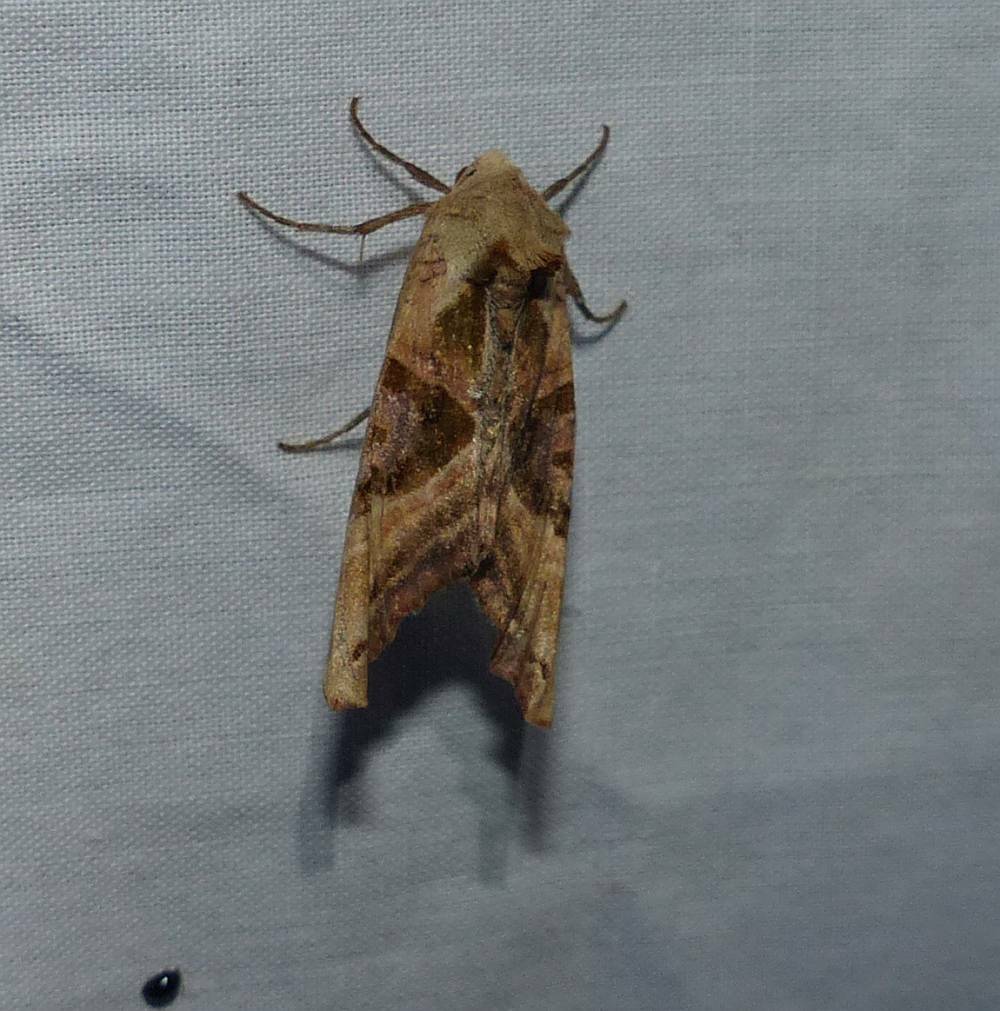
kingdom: Animalia
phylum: Arthropoda
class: Insecta
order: Lepidoptera
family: Noctuidae
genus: Phlogophora
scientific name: Phlogophora iris
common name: Olive angle shades
